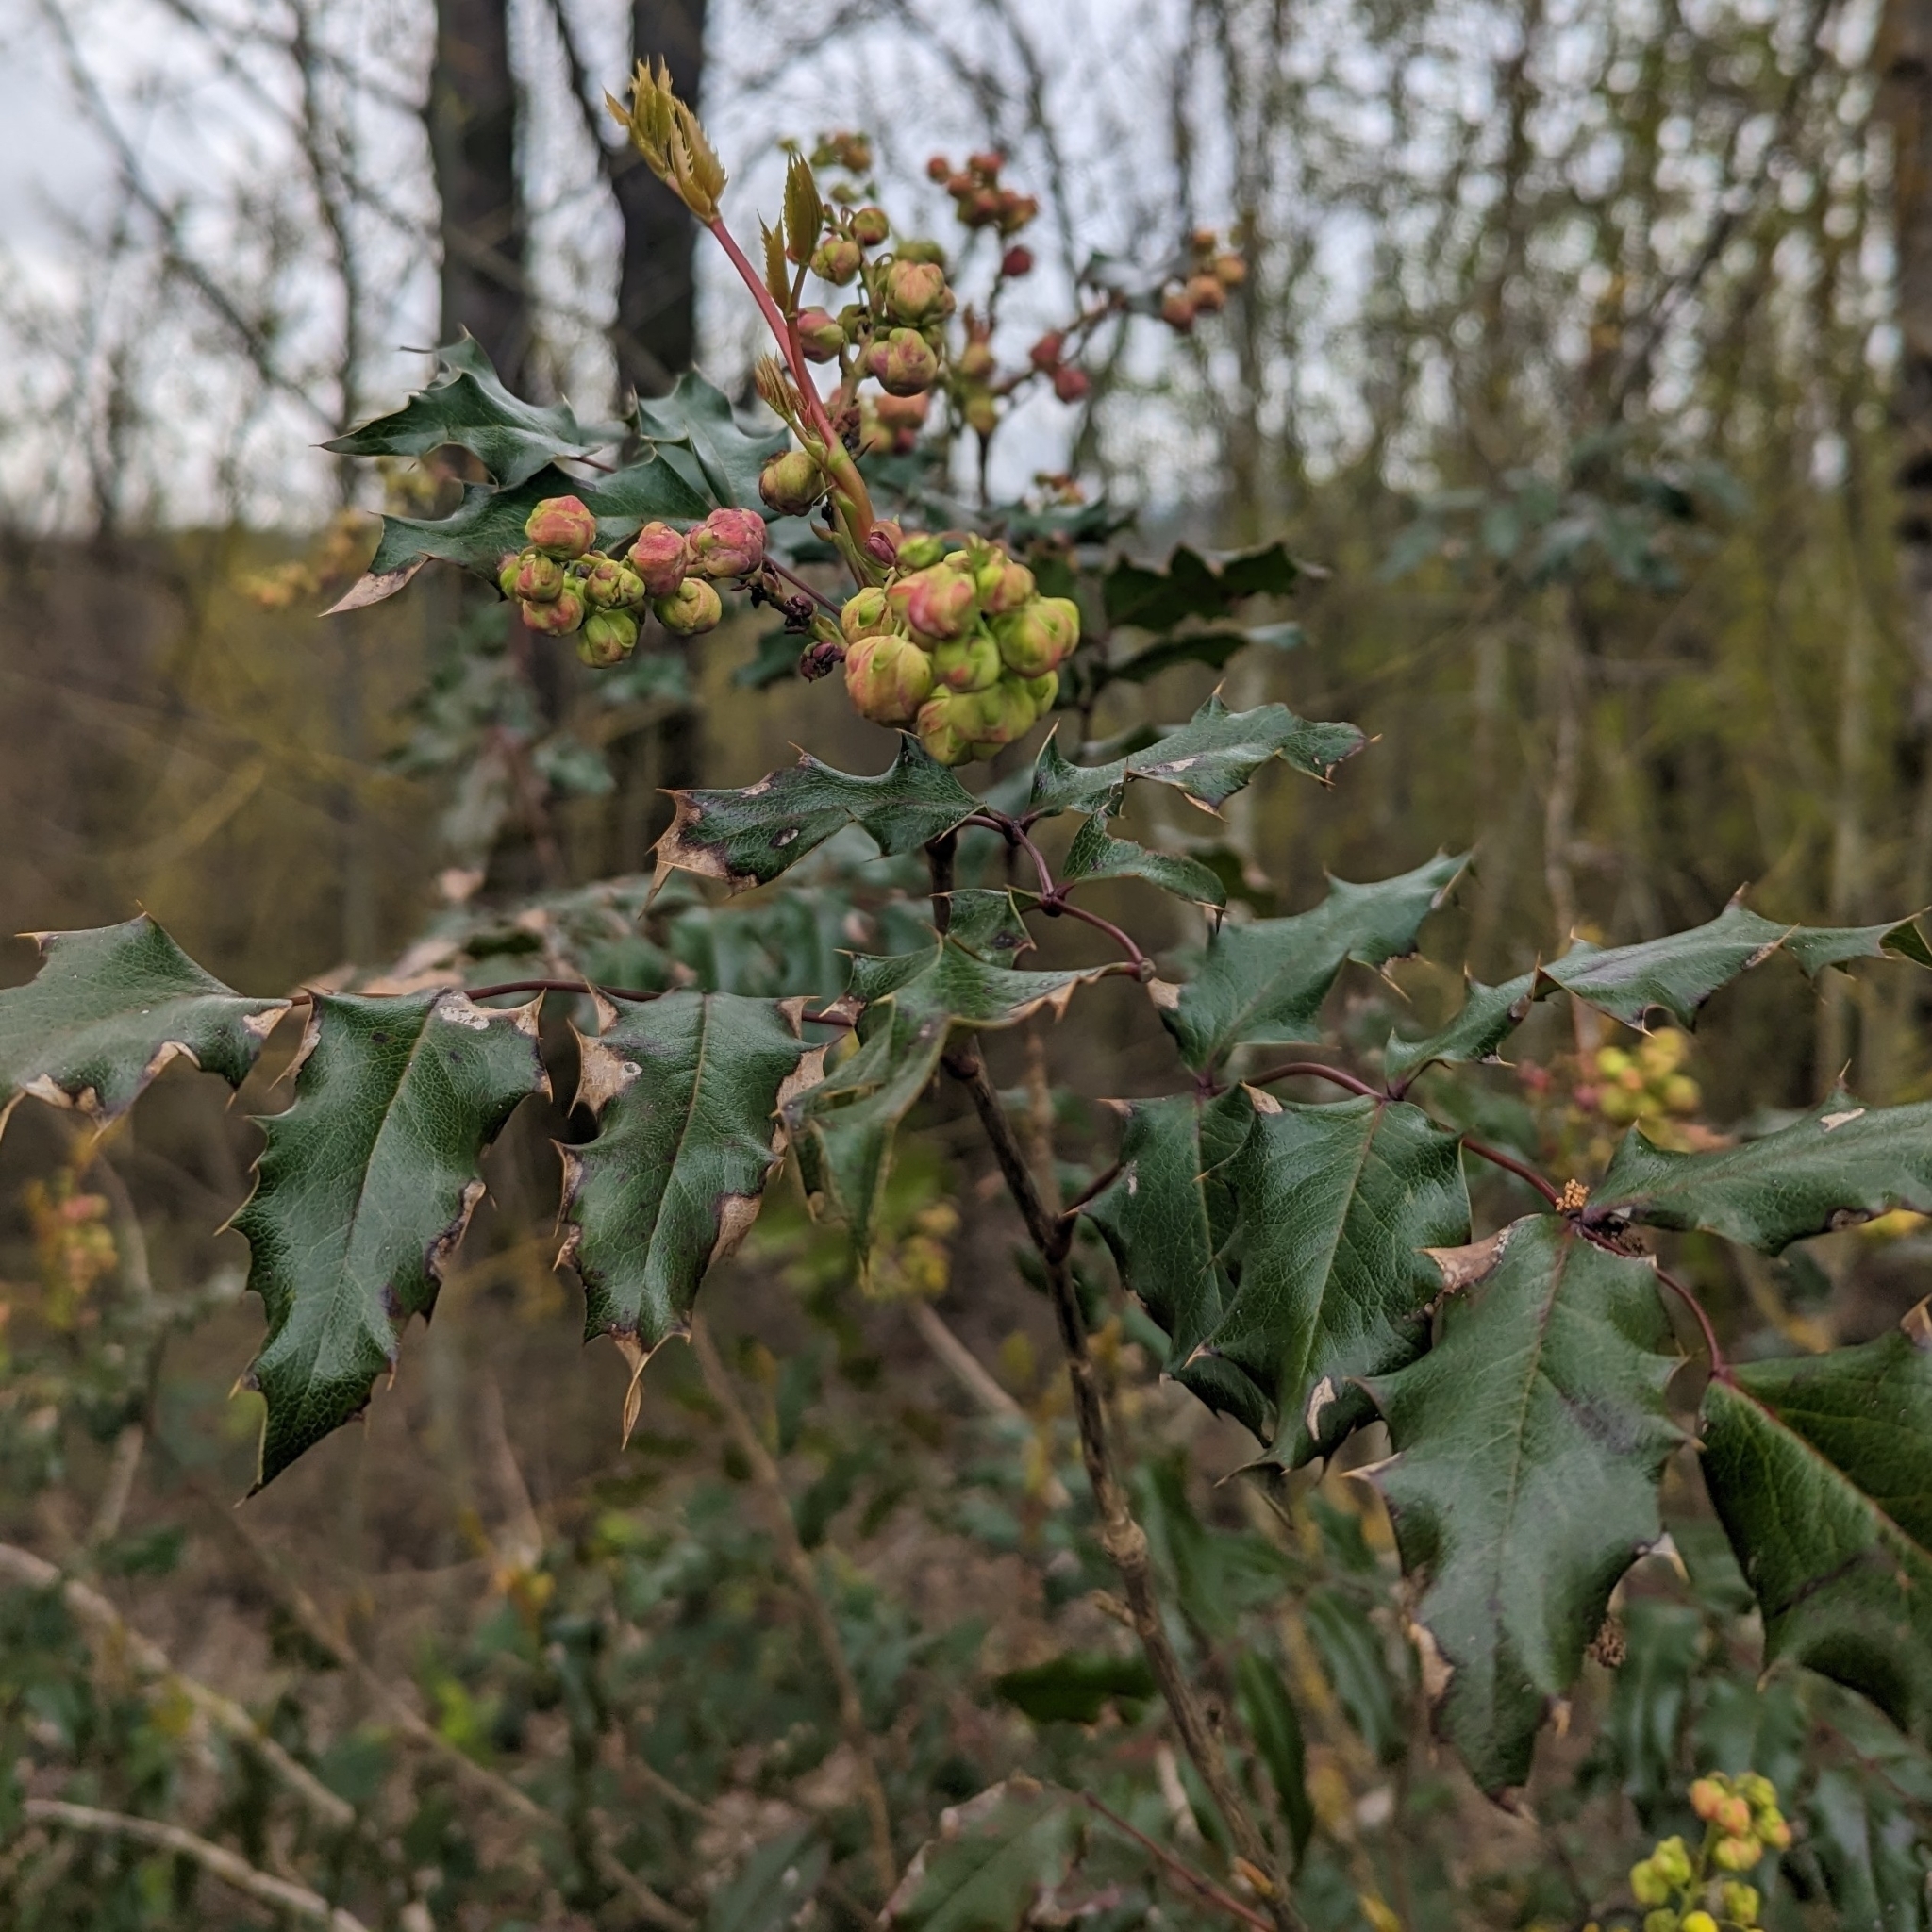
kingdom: Plantae
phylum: Tracheophyta
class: Magnoliopsida
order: Ranunculales
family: Berberidaceae
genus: Mahonia
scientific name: Mahonia aquifolium
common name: Oregon-grape
